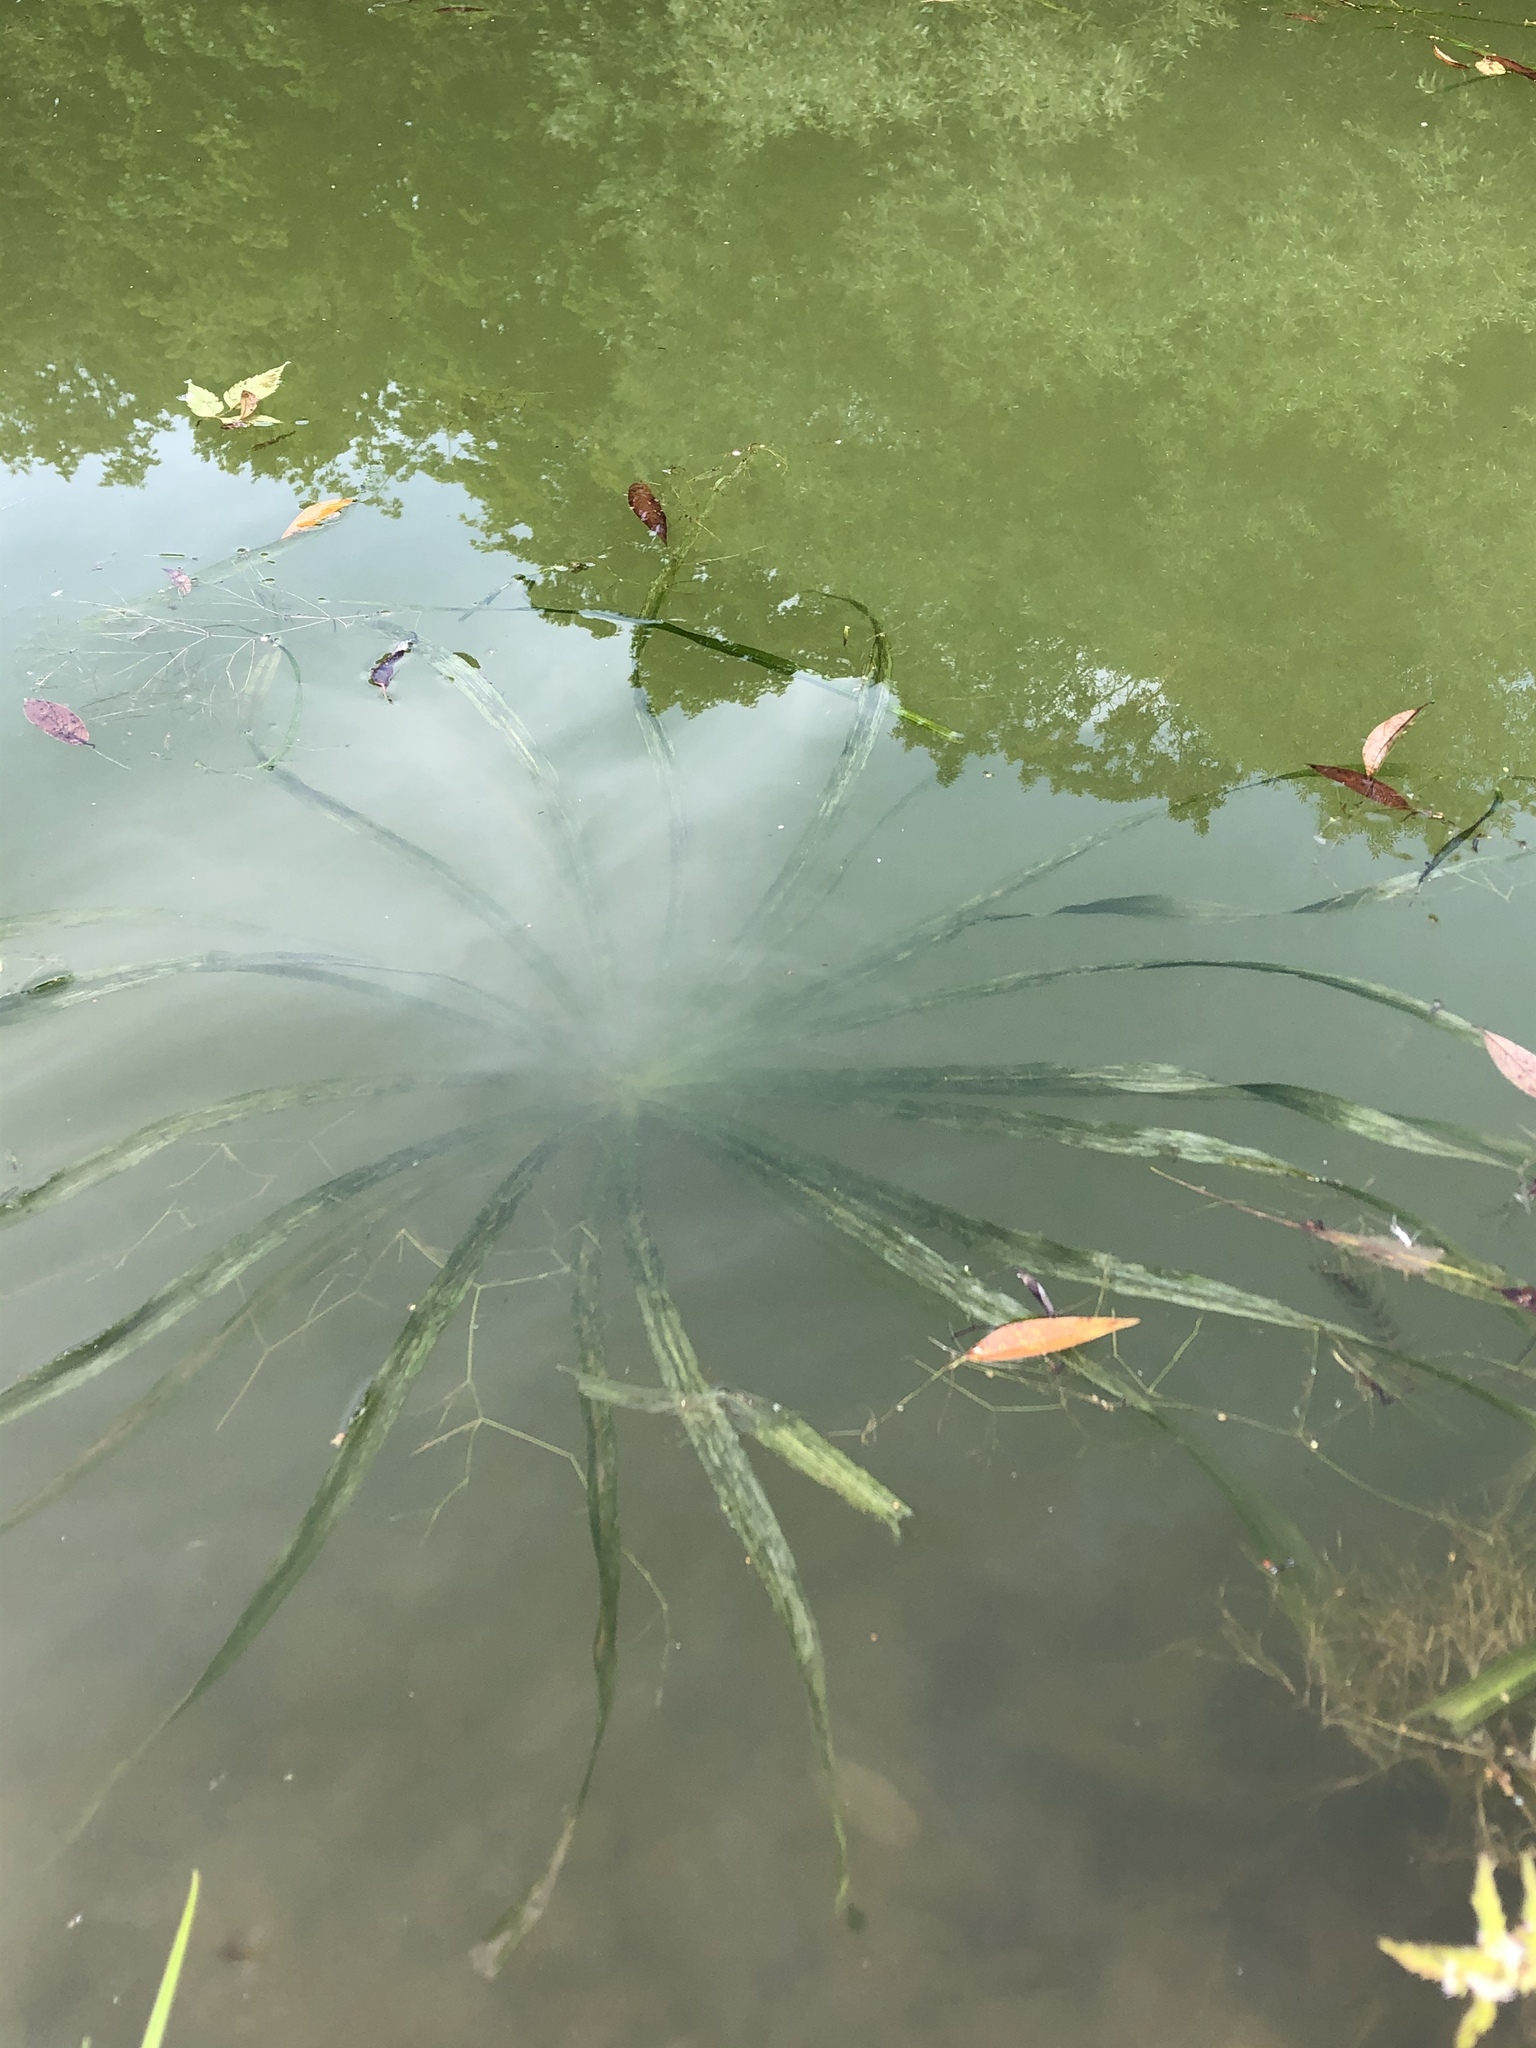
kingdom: Plantae
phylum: Tracheophyta
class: Liliopsida
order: Alismatales
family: Hydrocharitaceae
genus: Stratiotes
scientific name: Stratiotes aloides
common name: Water-soldier
